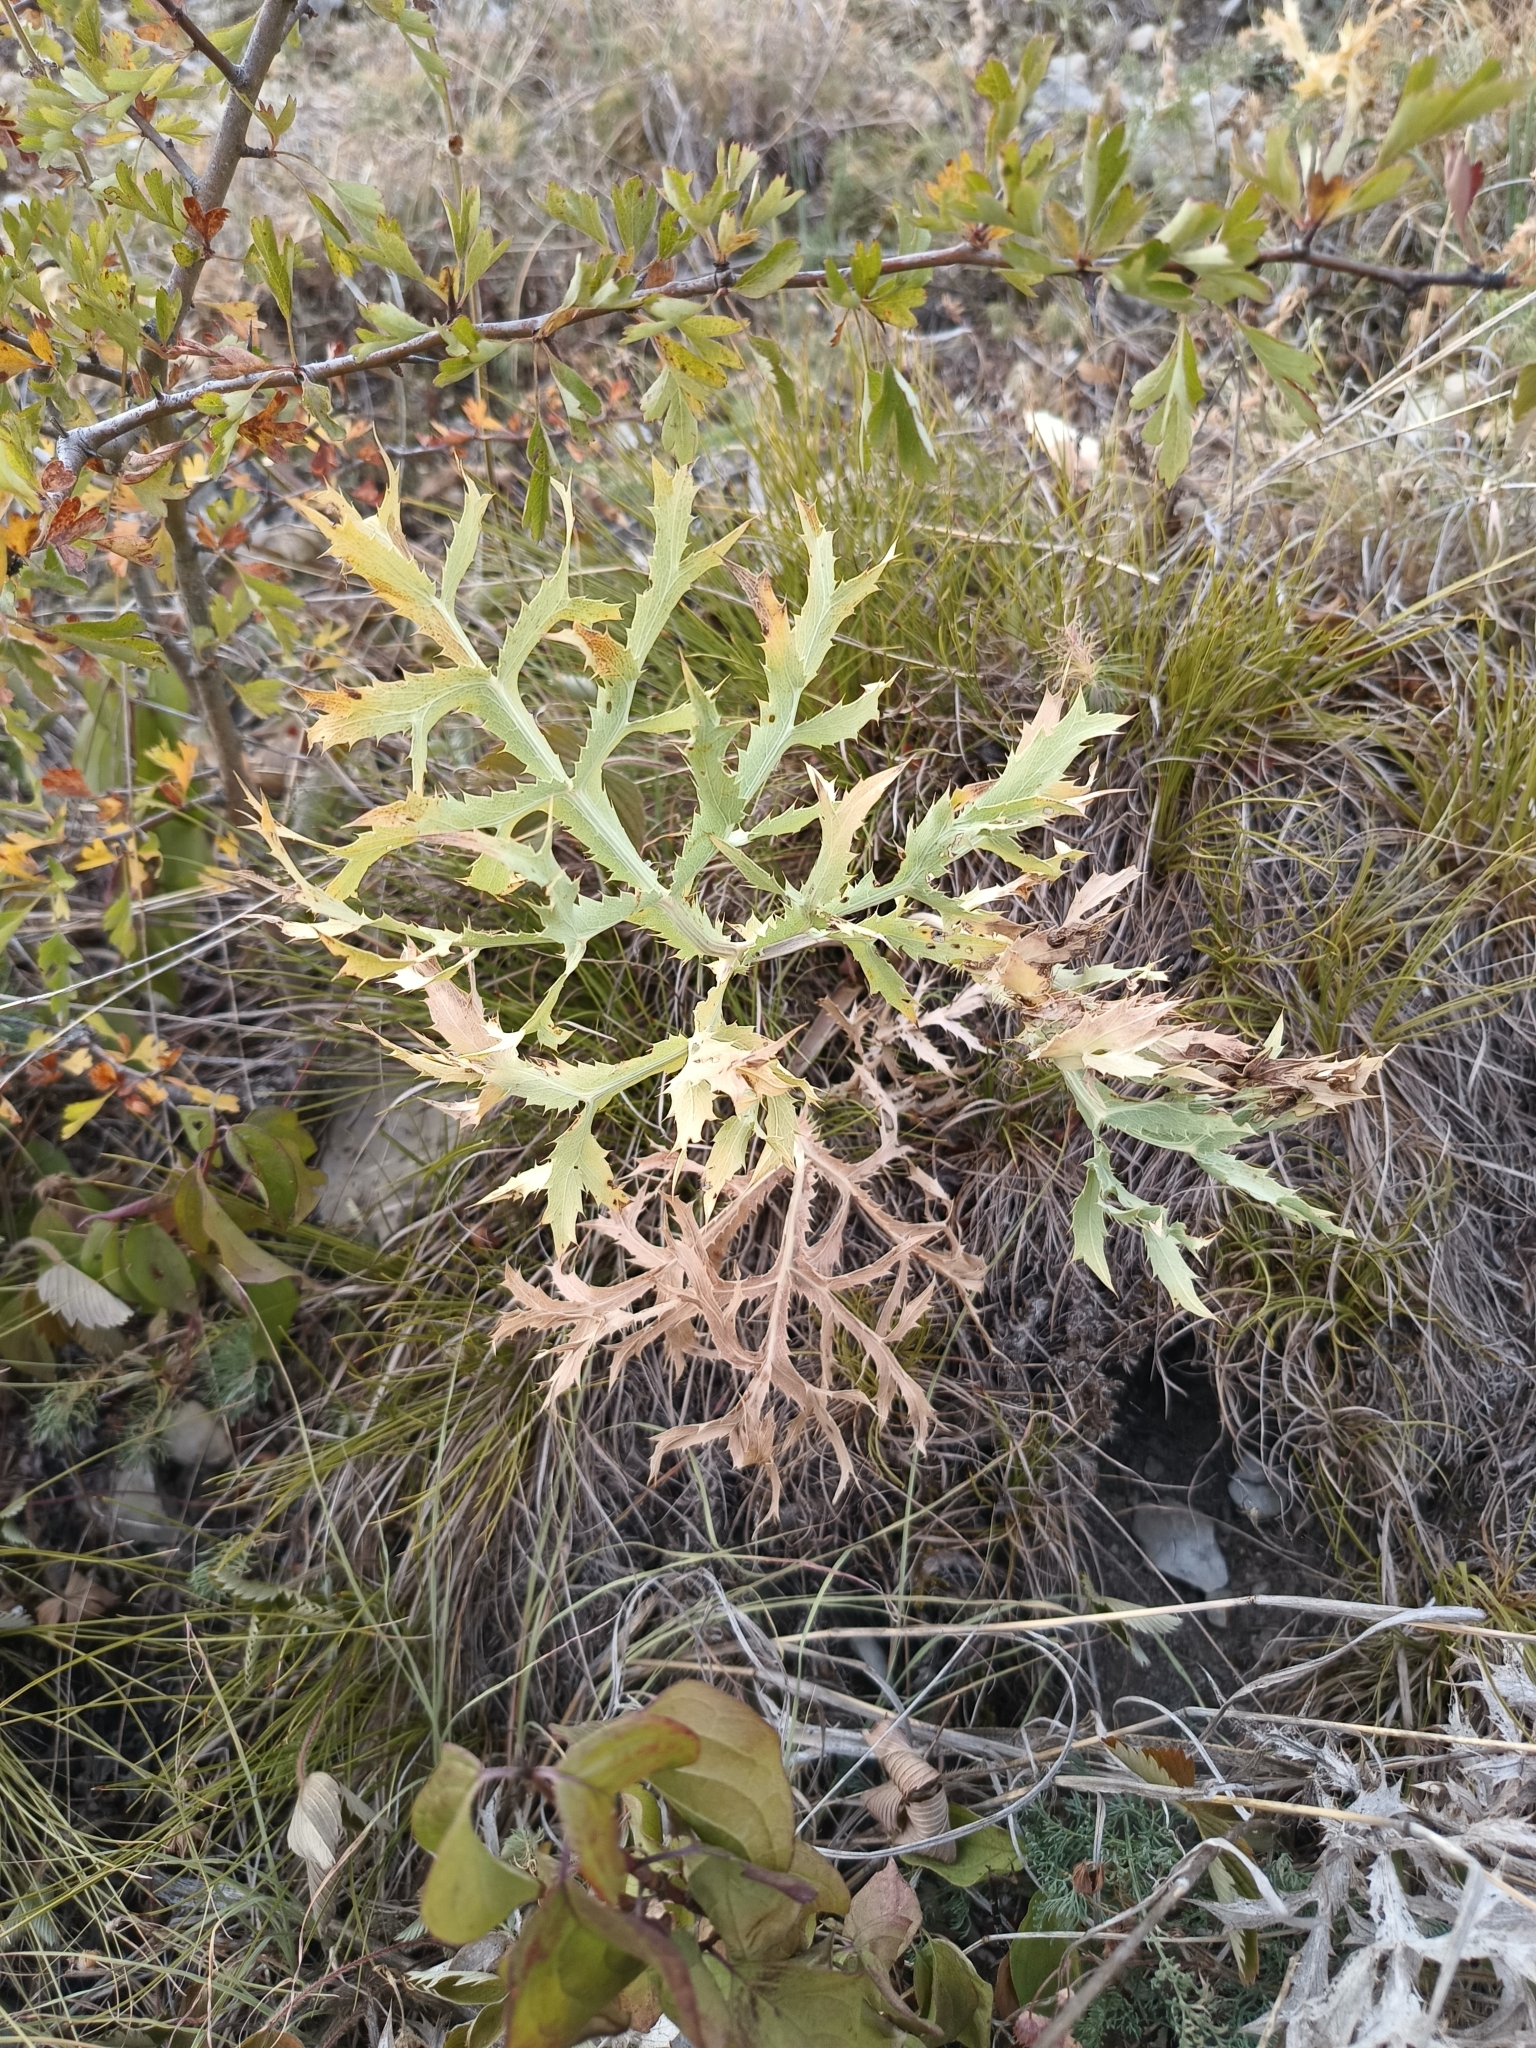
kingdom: Plantae
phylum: Tracheophyta
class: Magnoliopsida
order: Apiales
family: Apiaceae
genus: Eryngium
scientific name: Eryngium campestre
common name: Field eryngo
